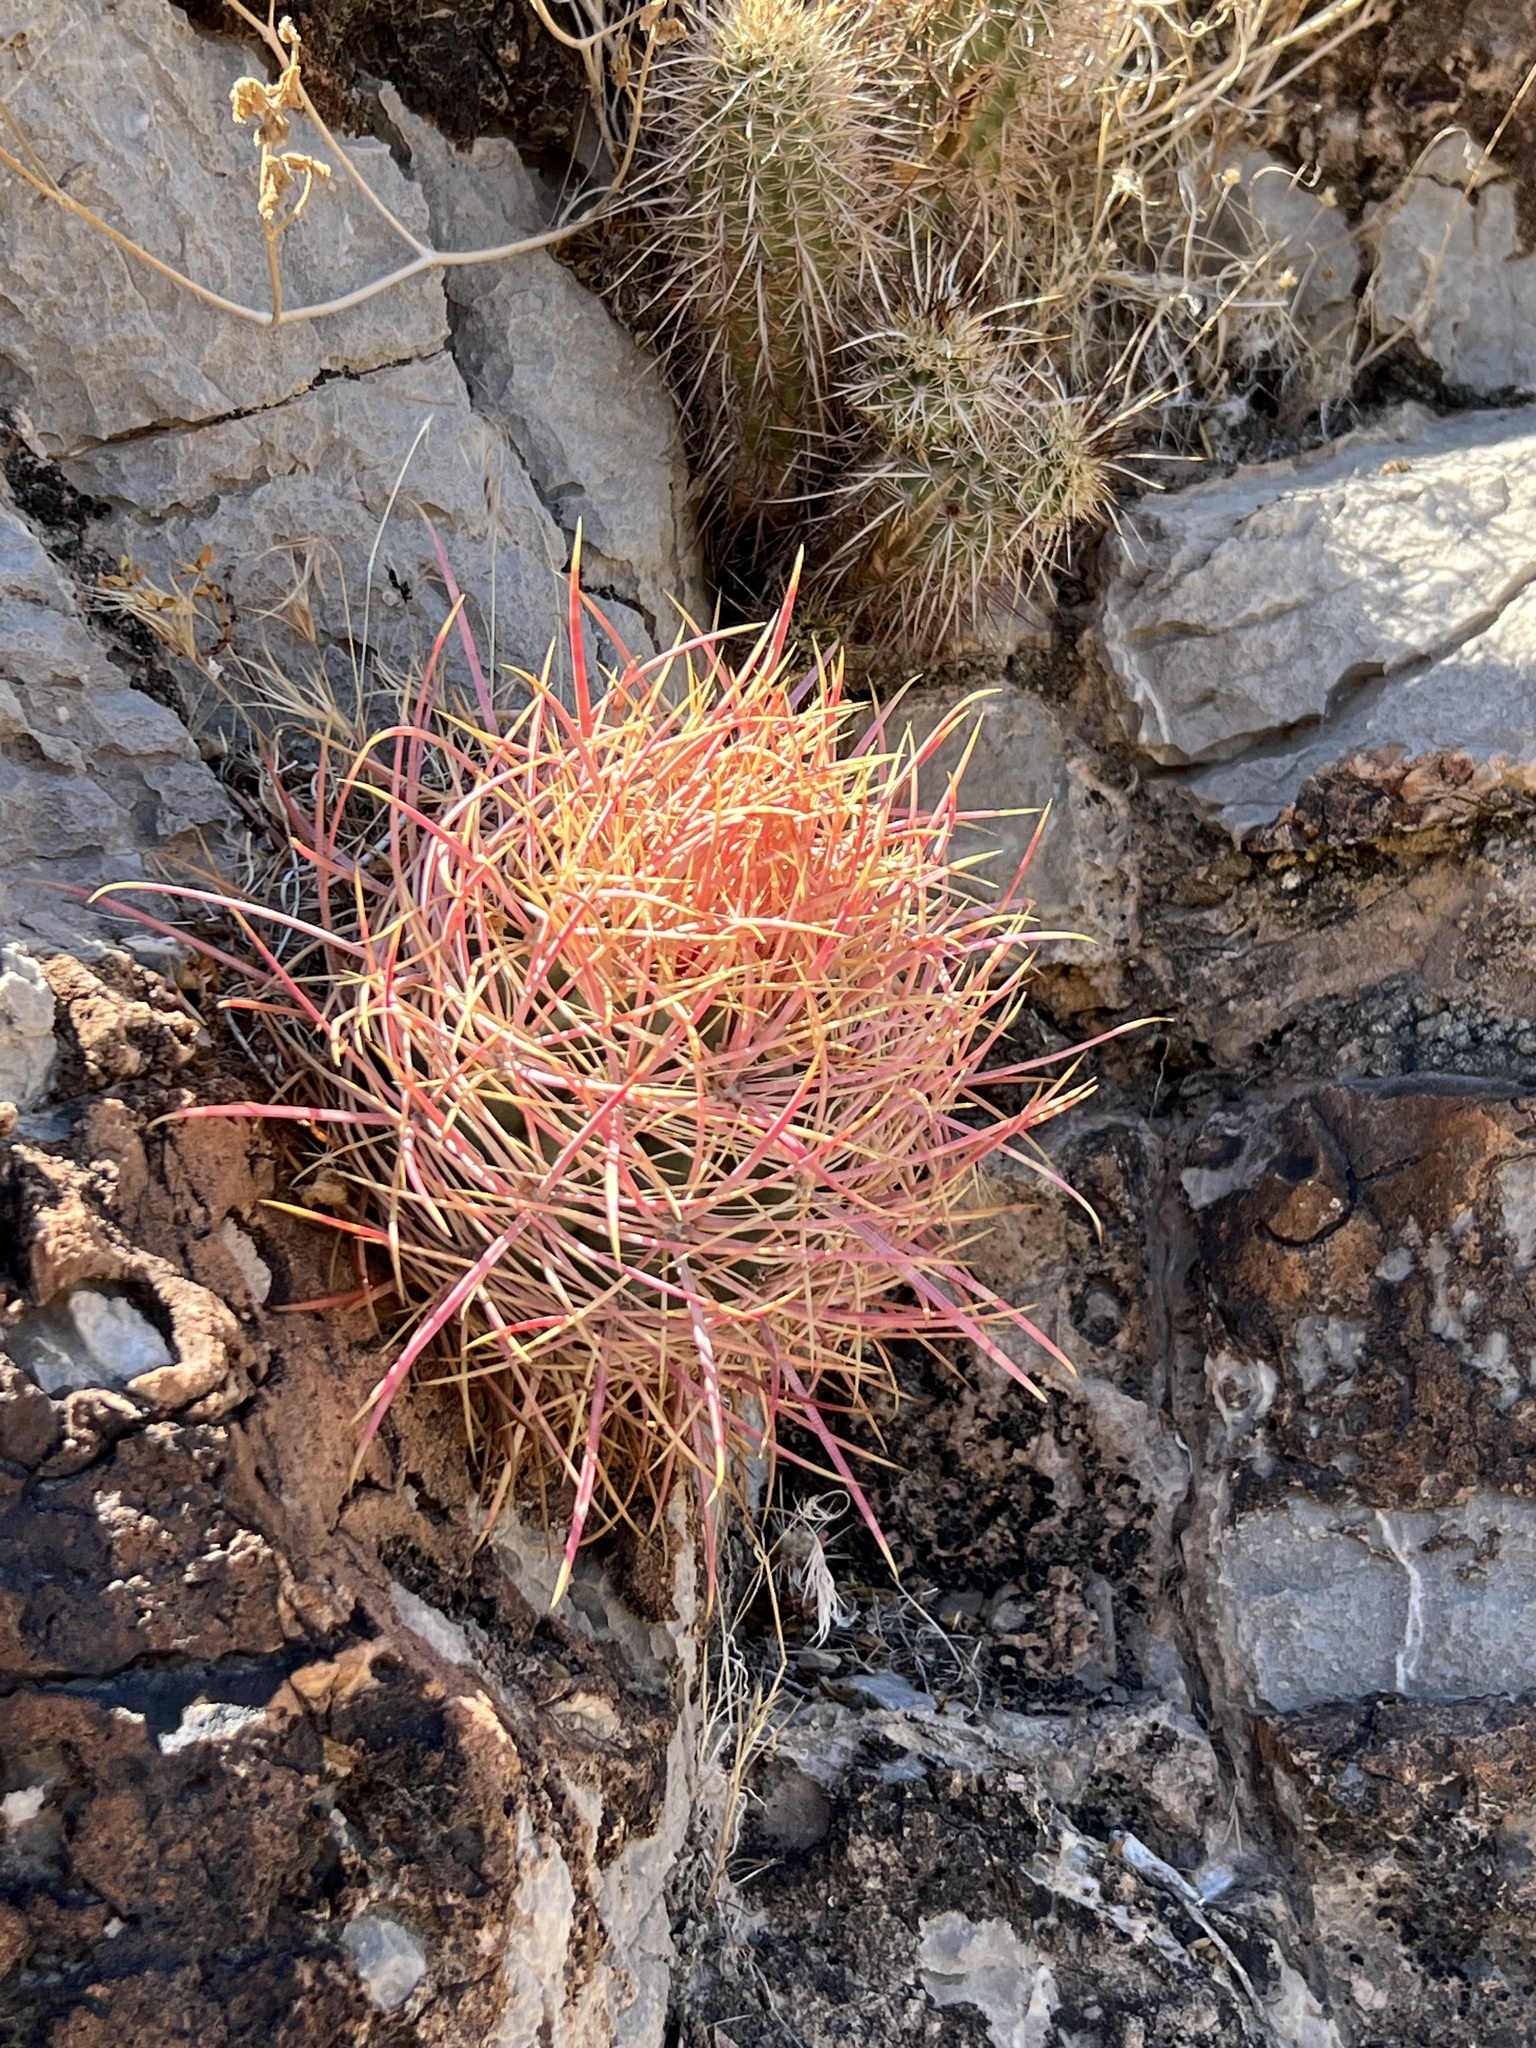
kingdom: Plantae
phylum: Tracheophyta
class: Magnoliopsida
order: Caryophyllales
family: Cactaceae
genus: Ferocactus
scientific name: Ferocactus cylindraceus
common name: California barrel cactus
